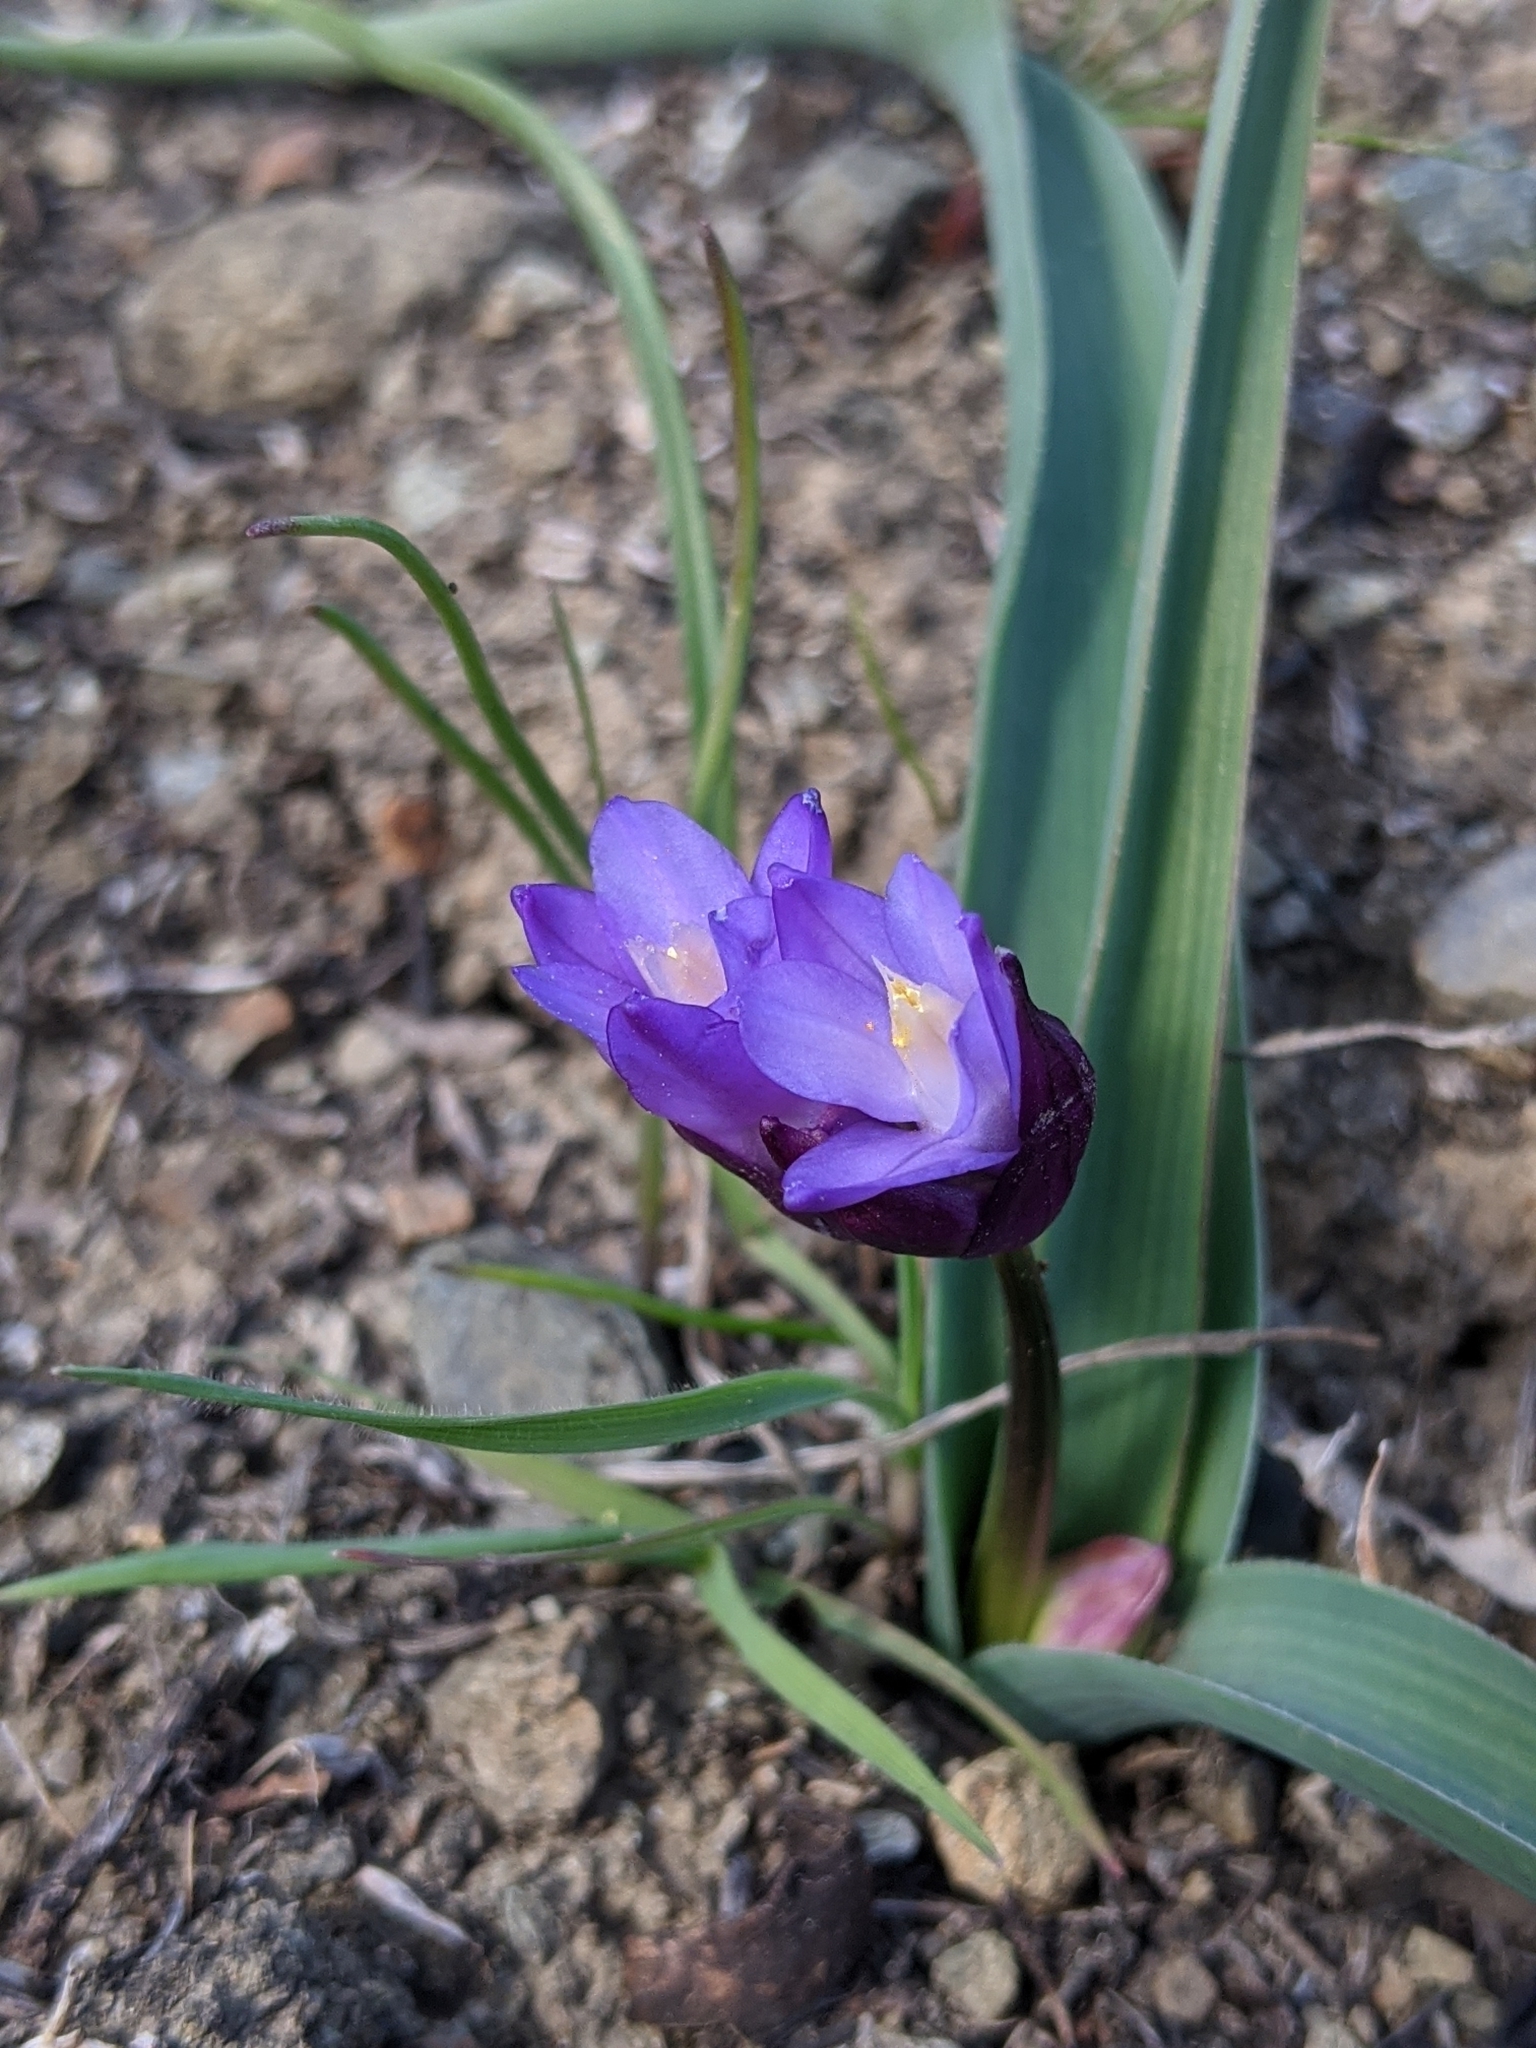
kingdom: Plantae
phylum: Tracheophyta
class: Liliopsida
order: Asparagales
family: Asparagaceae
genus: Dipterostemon
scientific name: Dipterostemon capitatus
